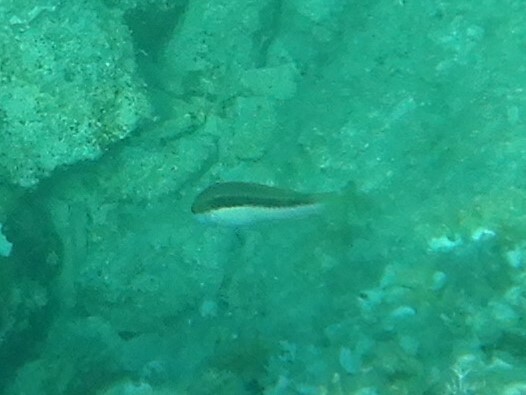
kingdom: Animalia
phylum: Chordata
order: Perciformes
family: Labridae
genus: Coris
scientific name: Coris julis
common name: Rainbow wrasse
